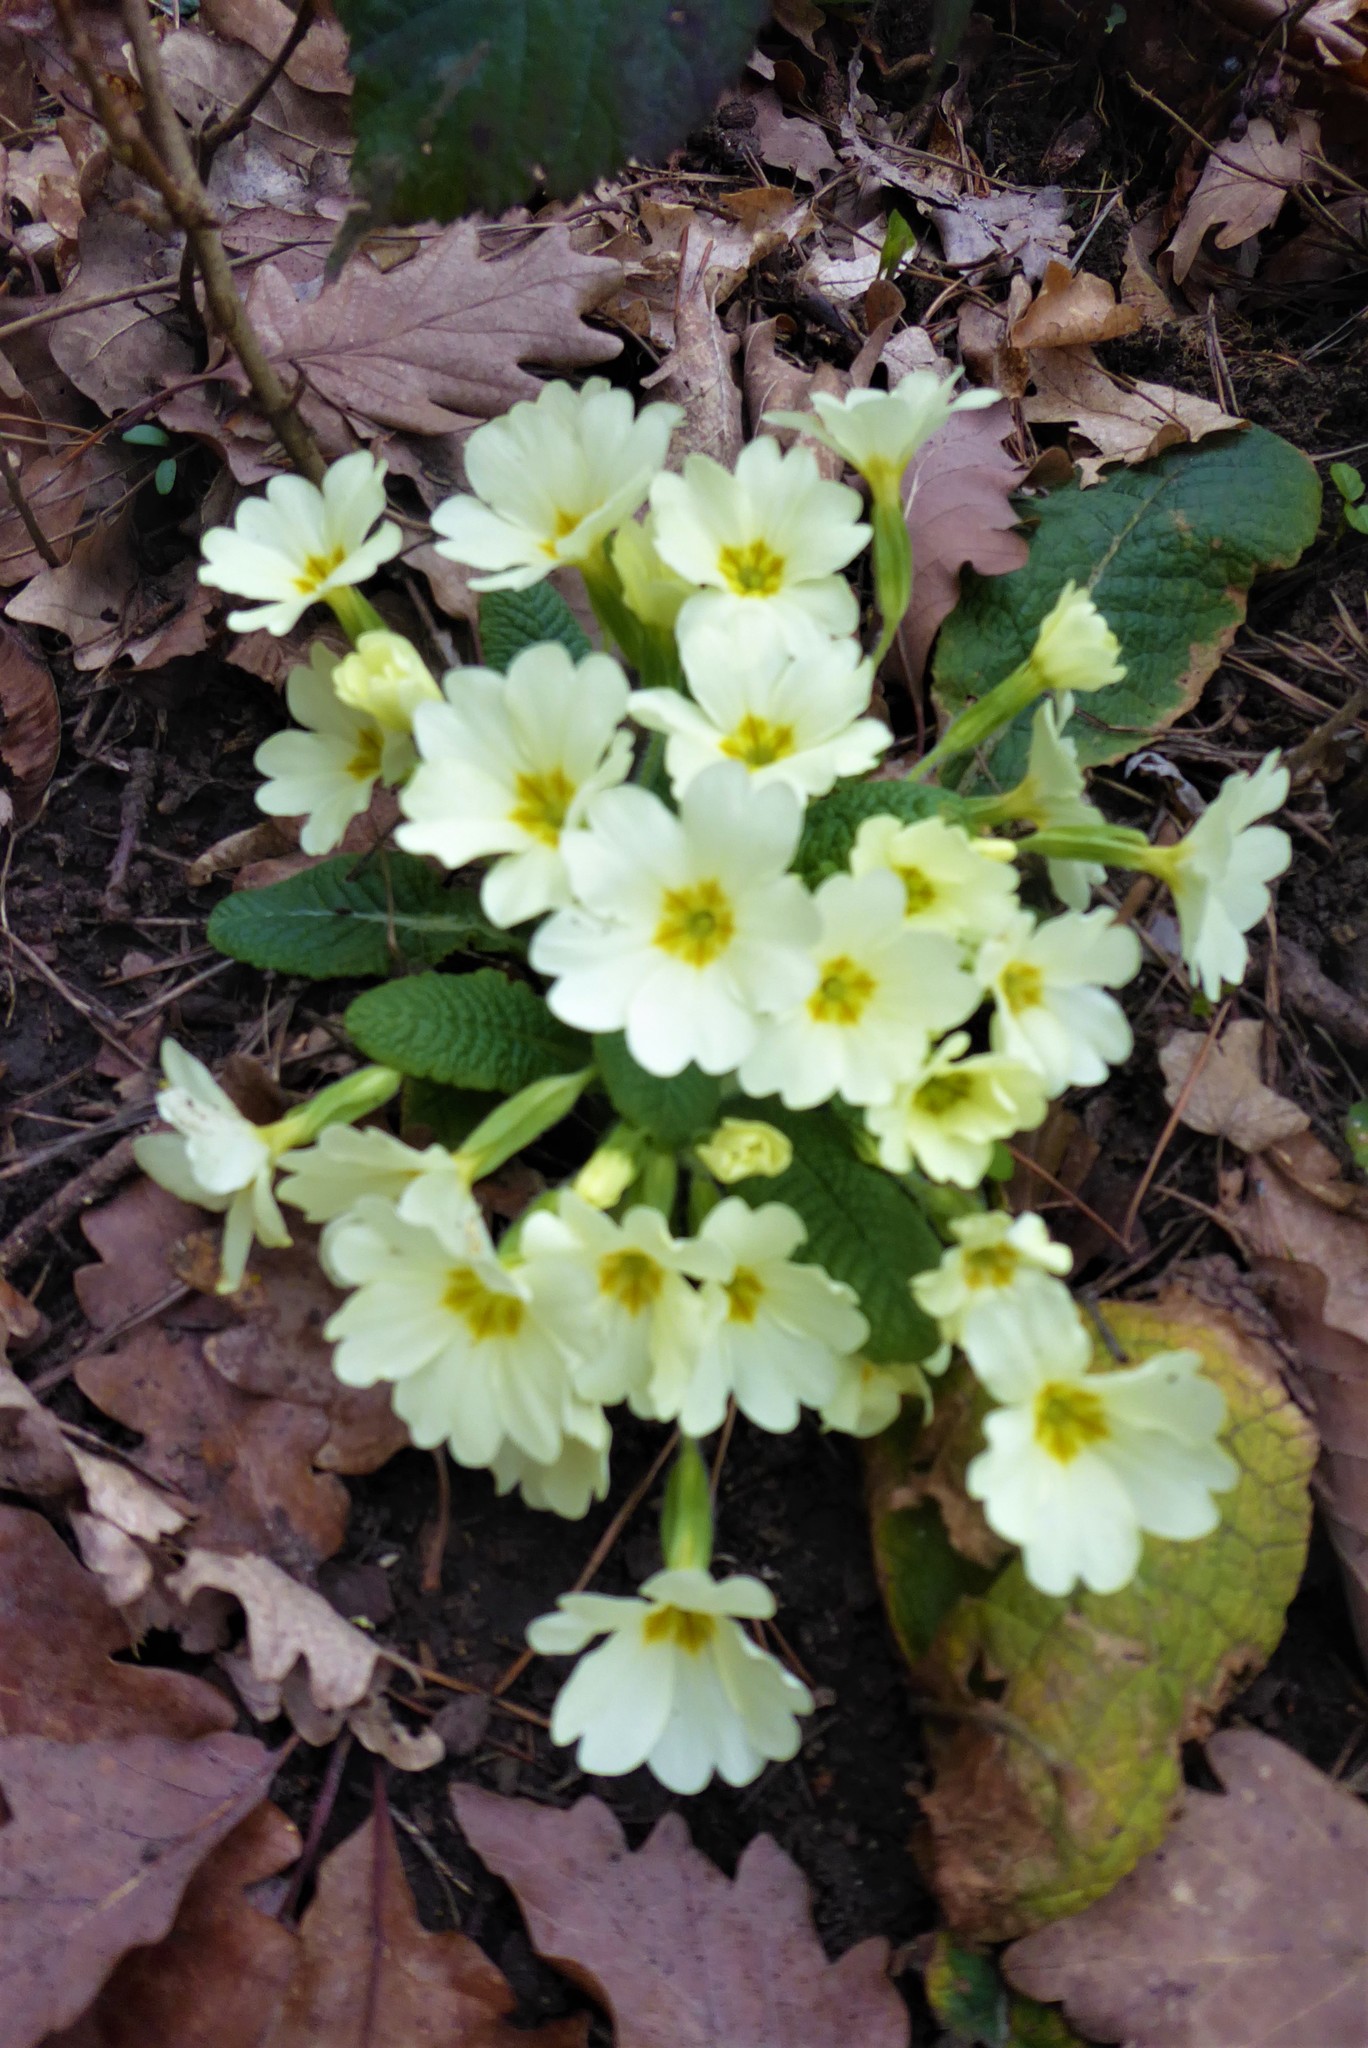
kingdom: Plantae
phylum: Tracheophyta
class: Magnoliopsida
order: Ericales
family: Primulaceae
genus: Primula
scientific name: Primula vulgaris
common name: Primrose
